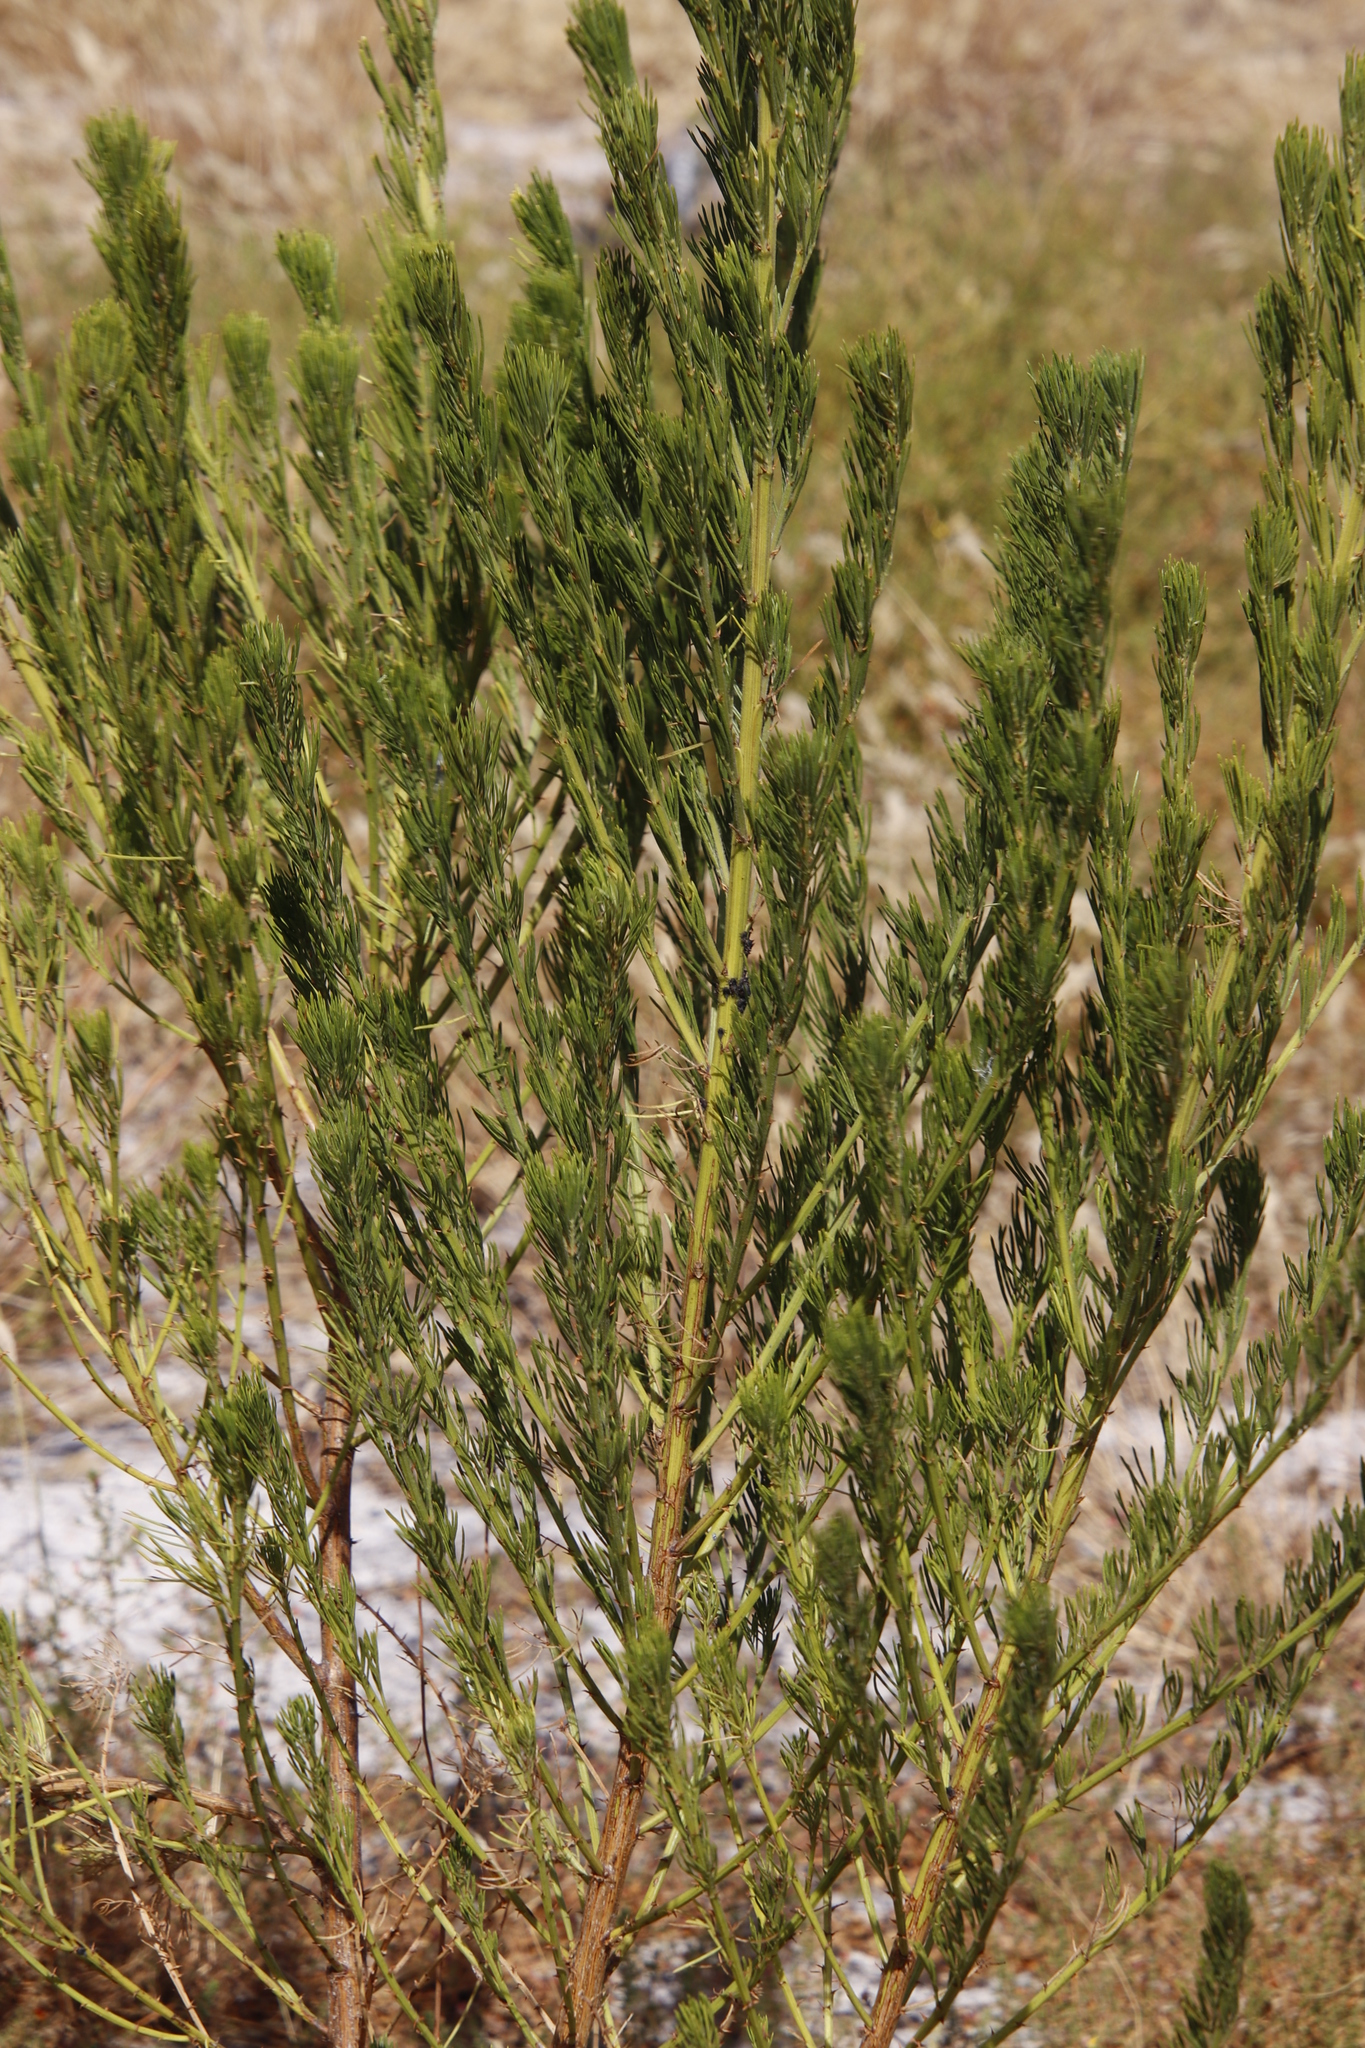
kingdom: Plantae
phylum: Tracheophyta
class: Magnoliopsida
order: Fabales
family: Fabaceae
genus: Psoralea
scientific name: Psoralea pinnata
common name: African scurfpea
